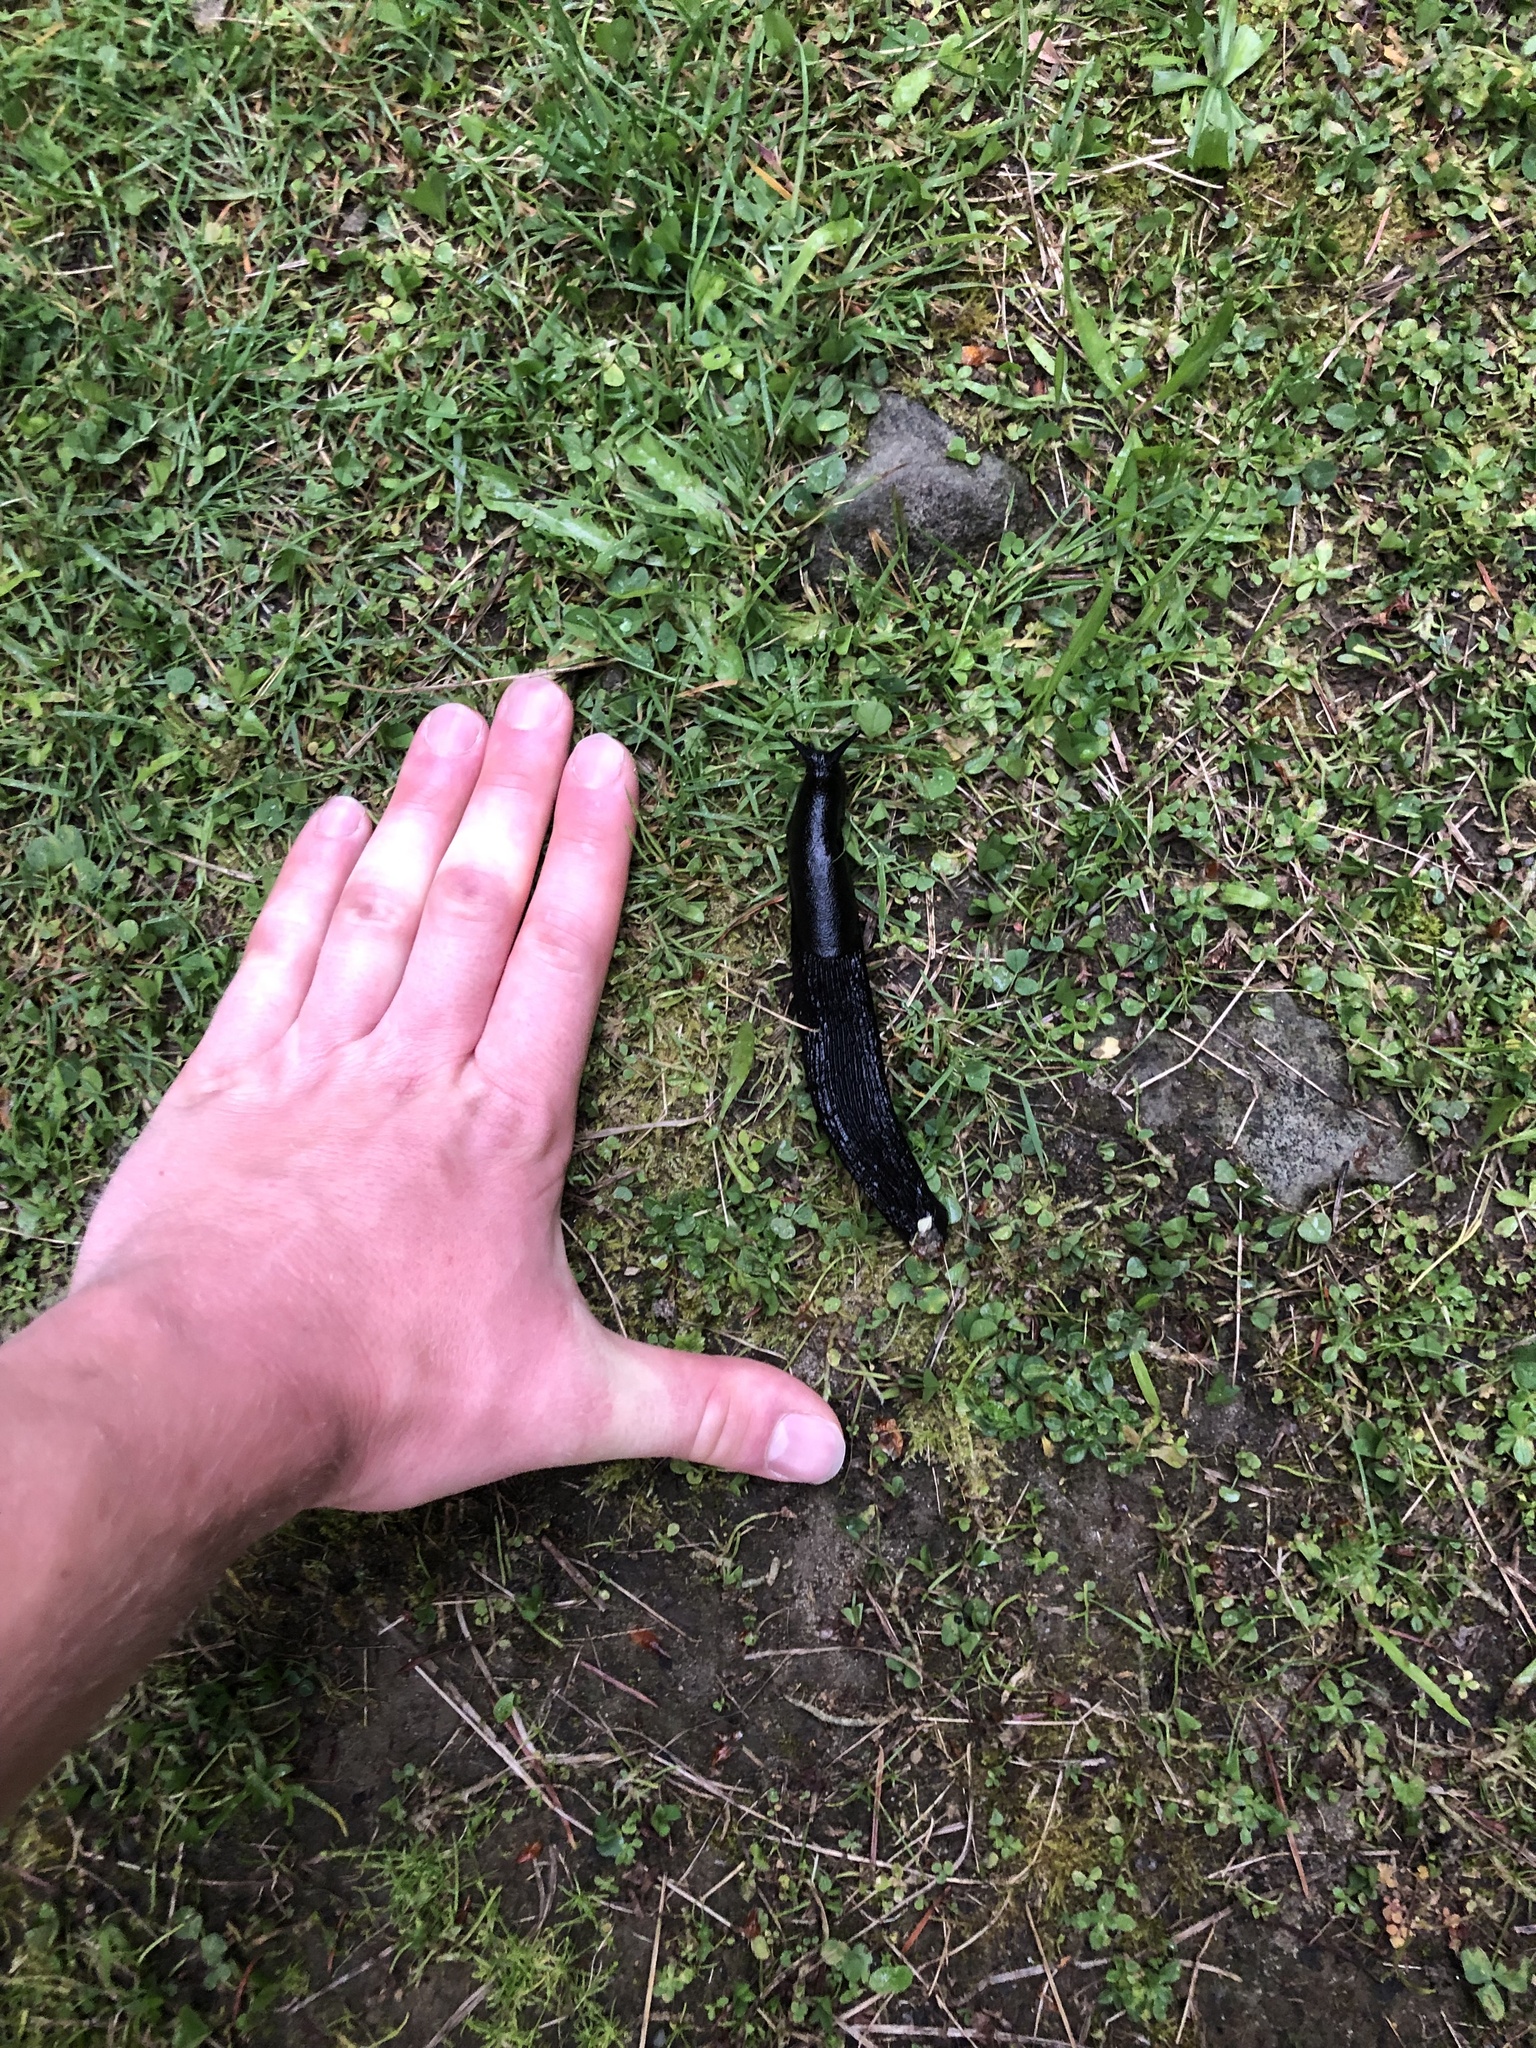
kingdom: Animalia
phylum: Mollusca
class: Gastropoda
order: Stylommatophora
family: Arionidae
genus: Arion
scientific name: Arion
